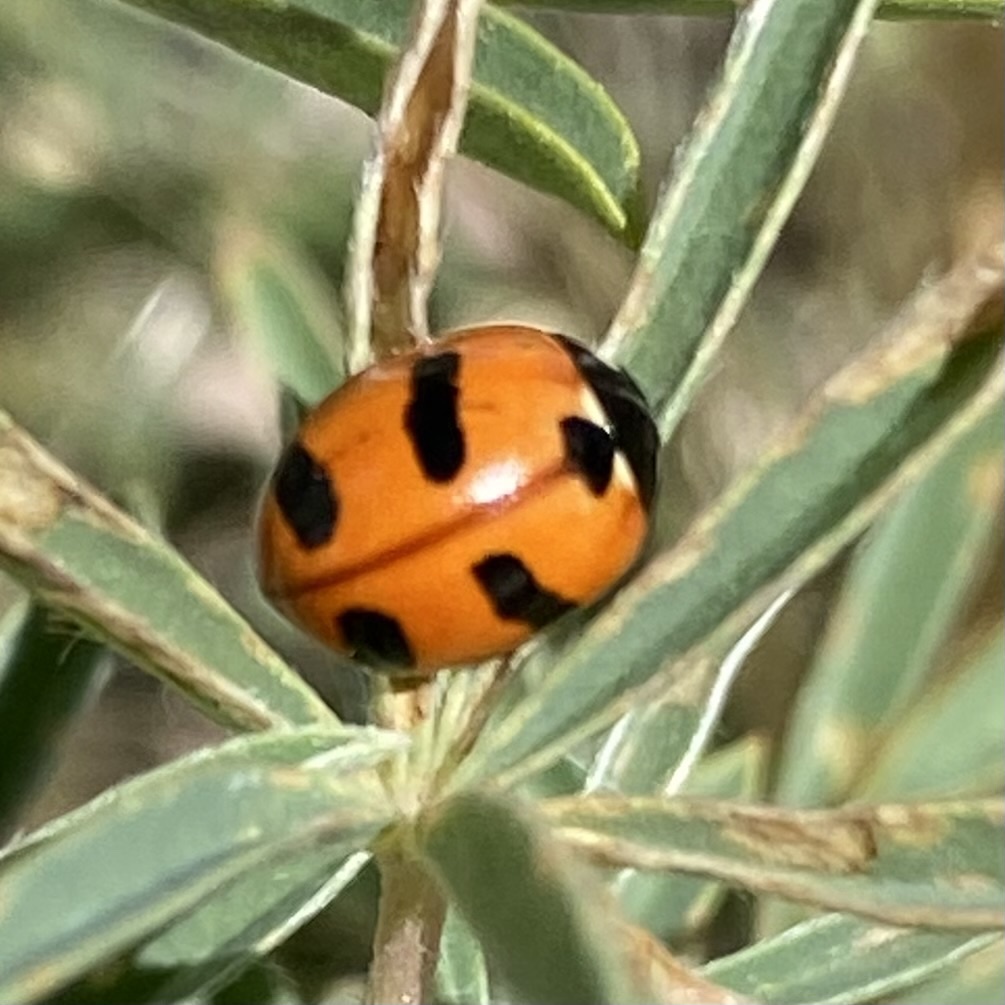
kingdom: Animalia
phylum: Arthropoda
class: Insecta
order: Coleoptera
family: Coccinellidae
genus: Coccinella
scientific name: Coccinella monticola
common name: Mountain lady beetle
